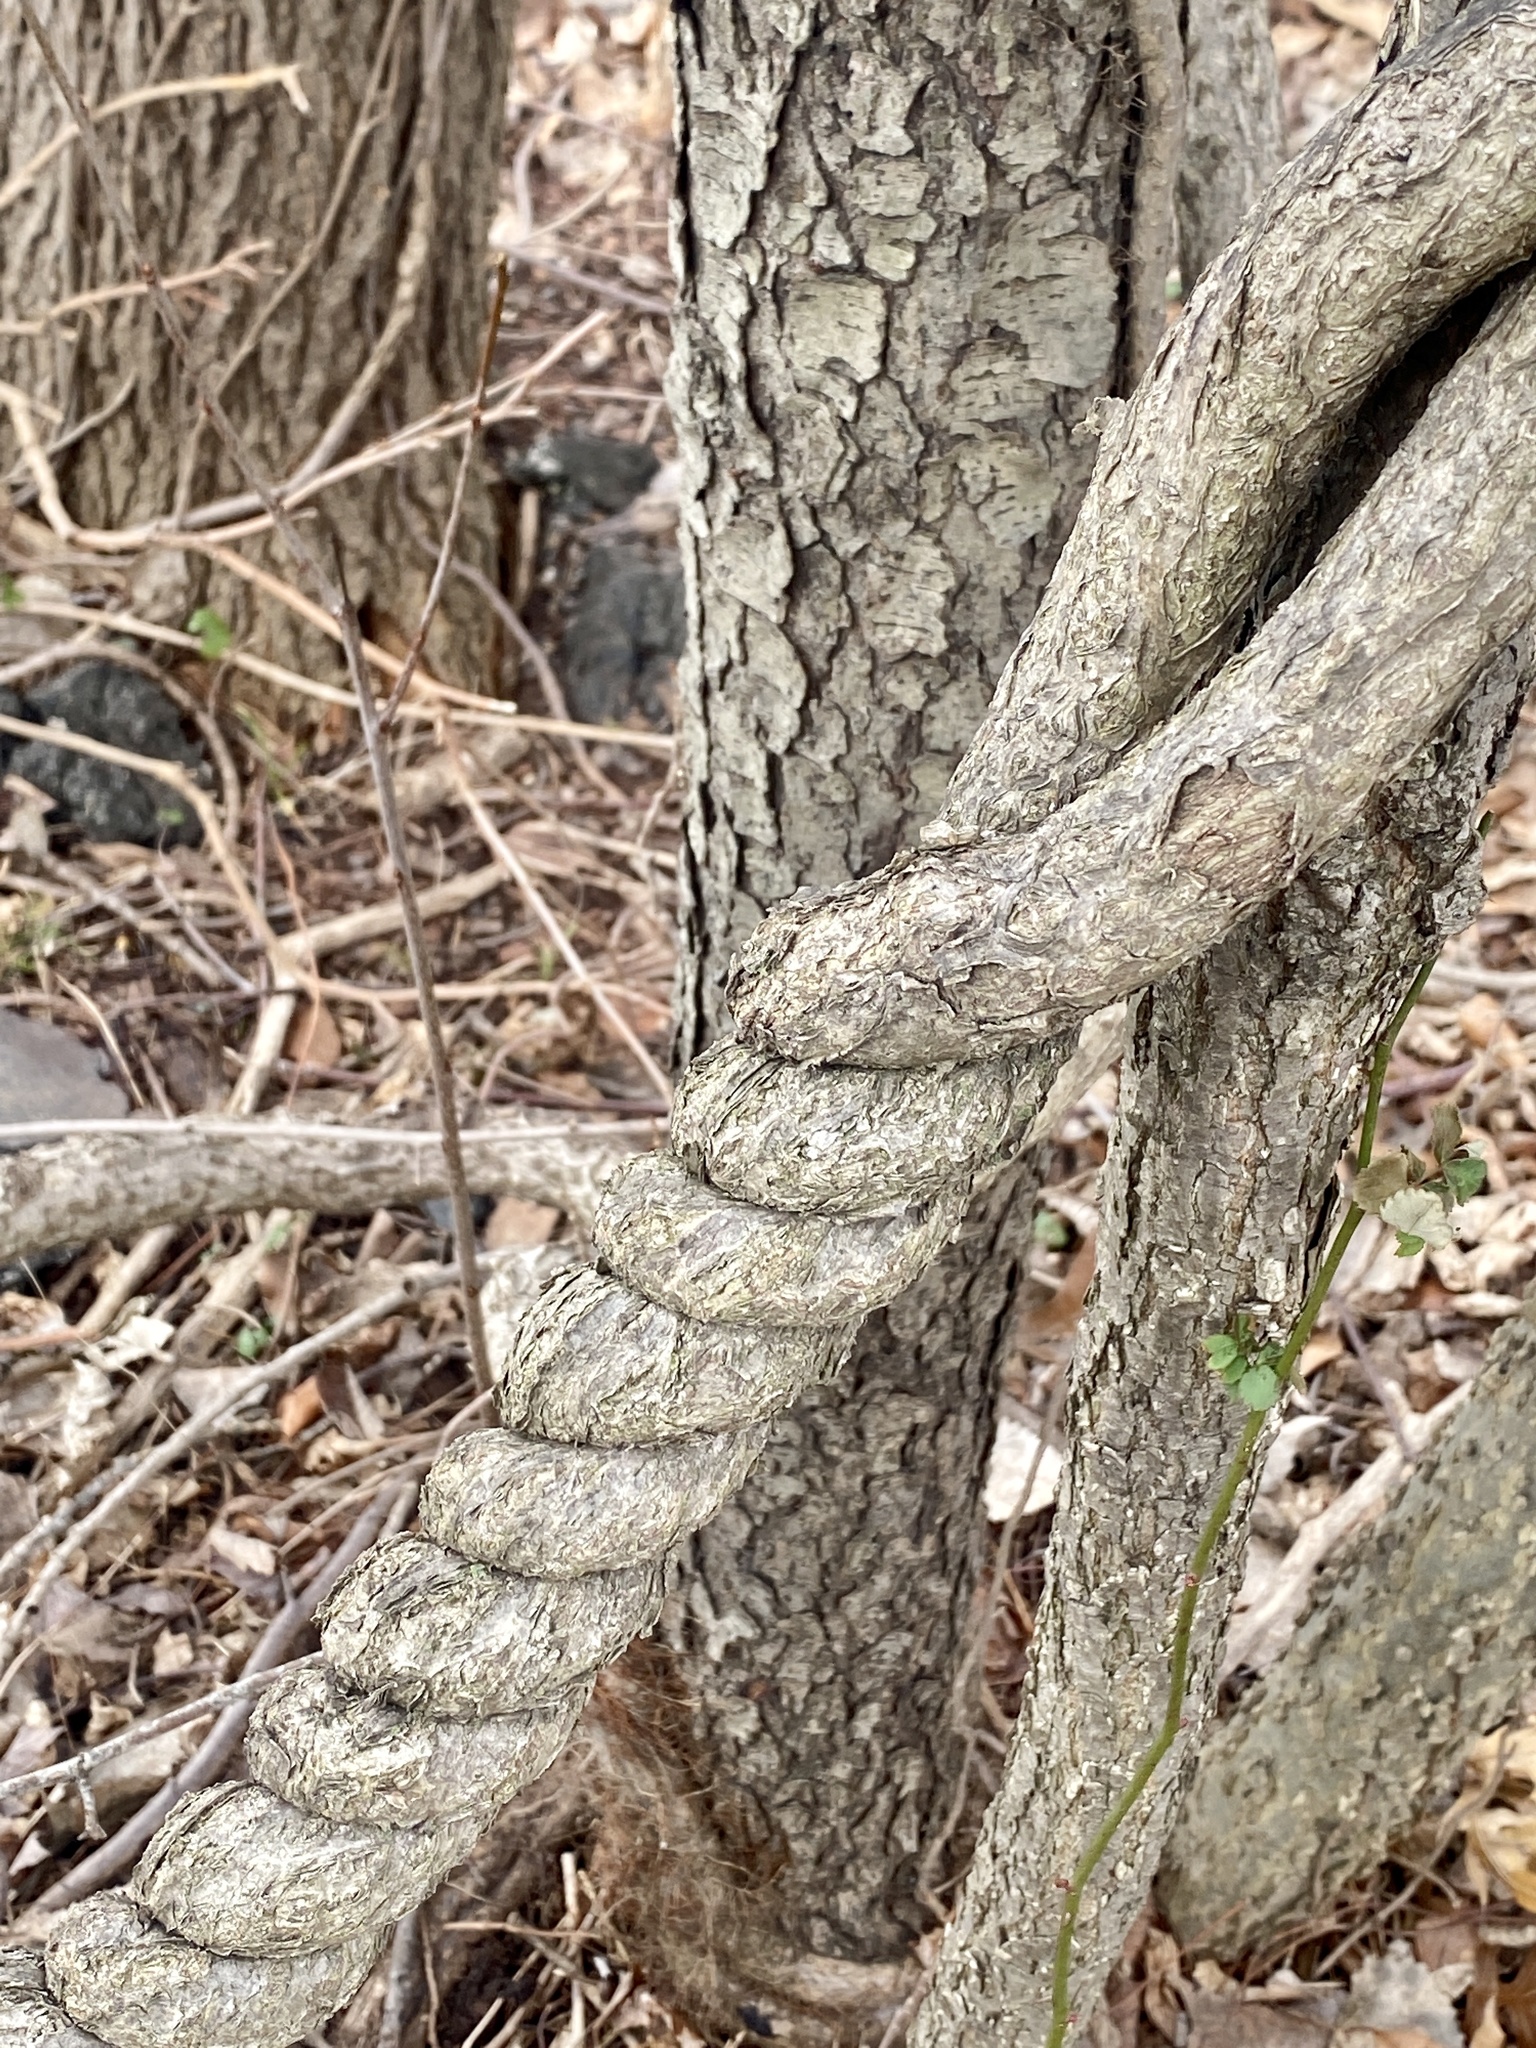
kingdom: Plantae
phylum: Tracheophyta
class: Magnoliopsida
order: Celastrales
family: Celastraceae
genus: Celastrus
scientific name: Celastrus orbiculatus
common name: Oriental bittersweet
